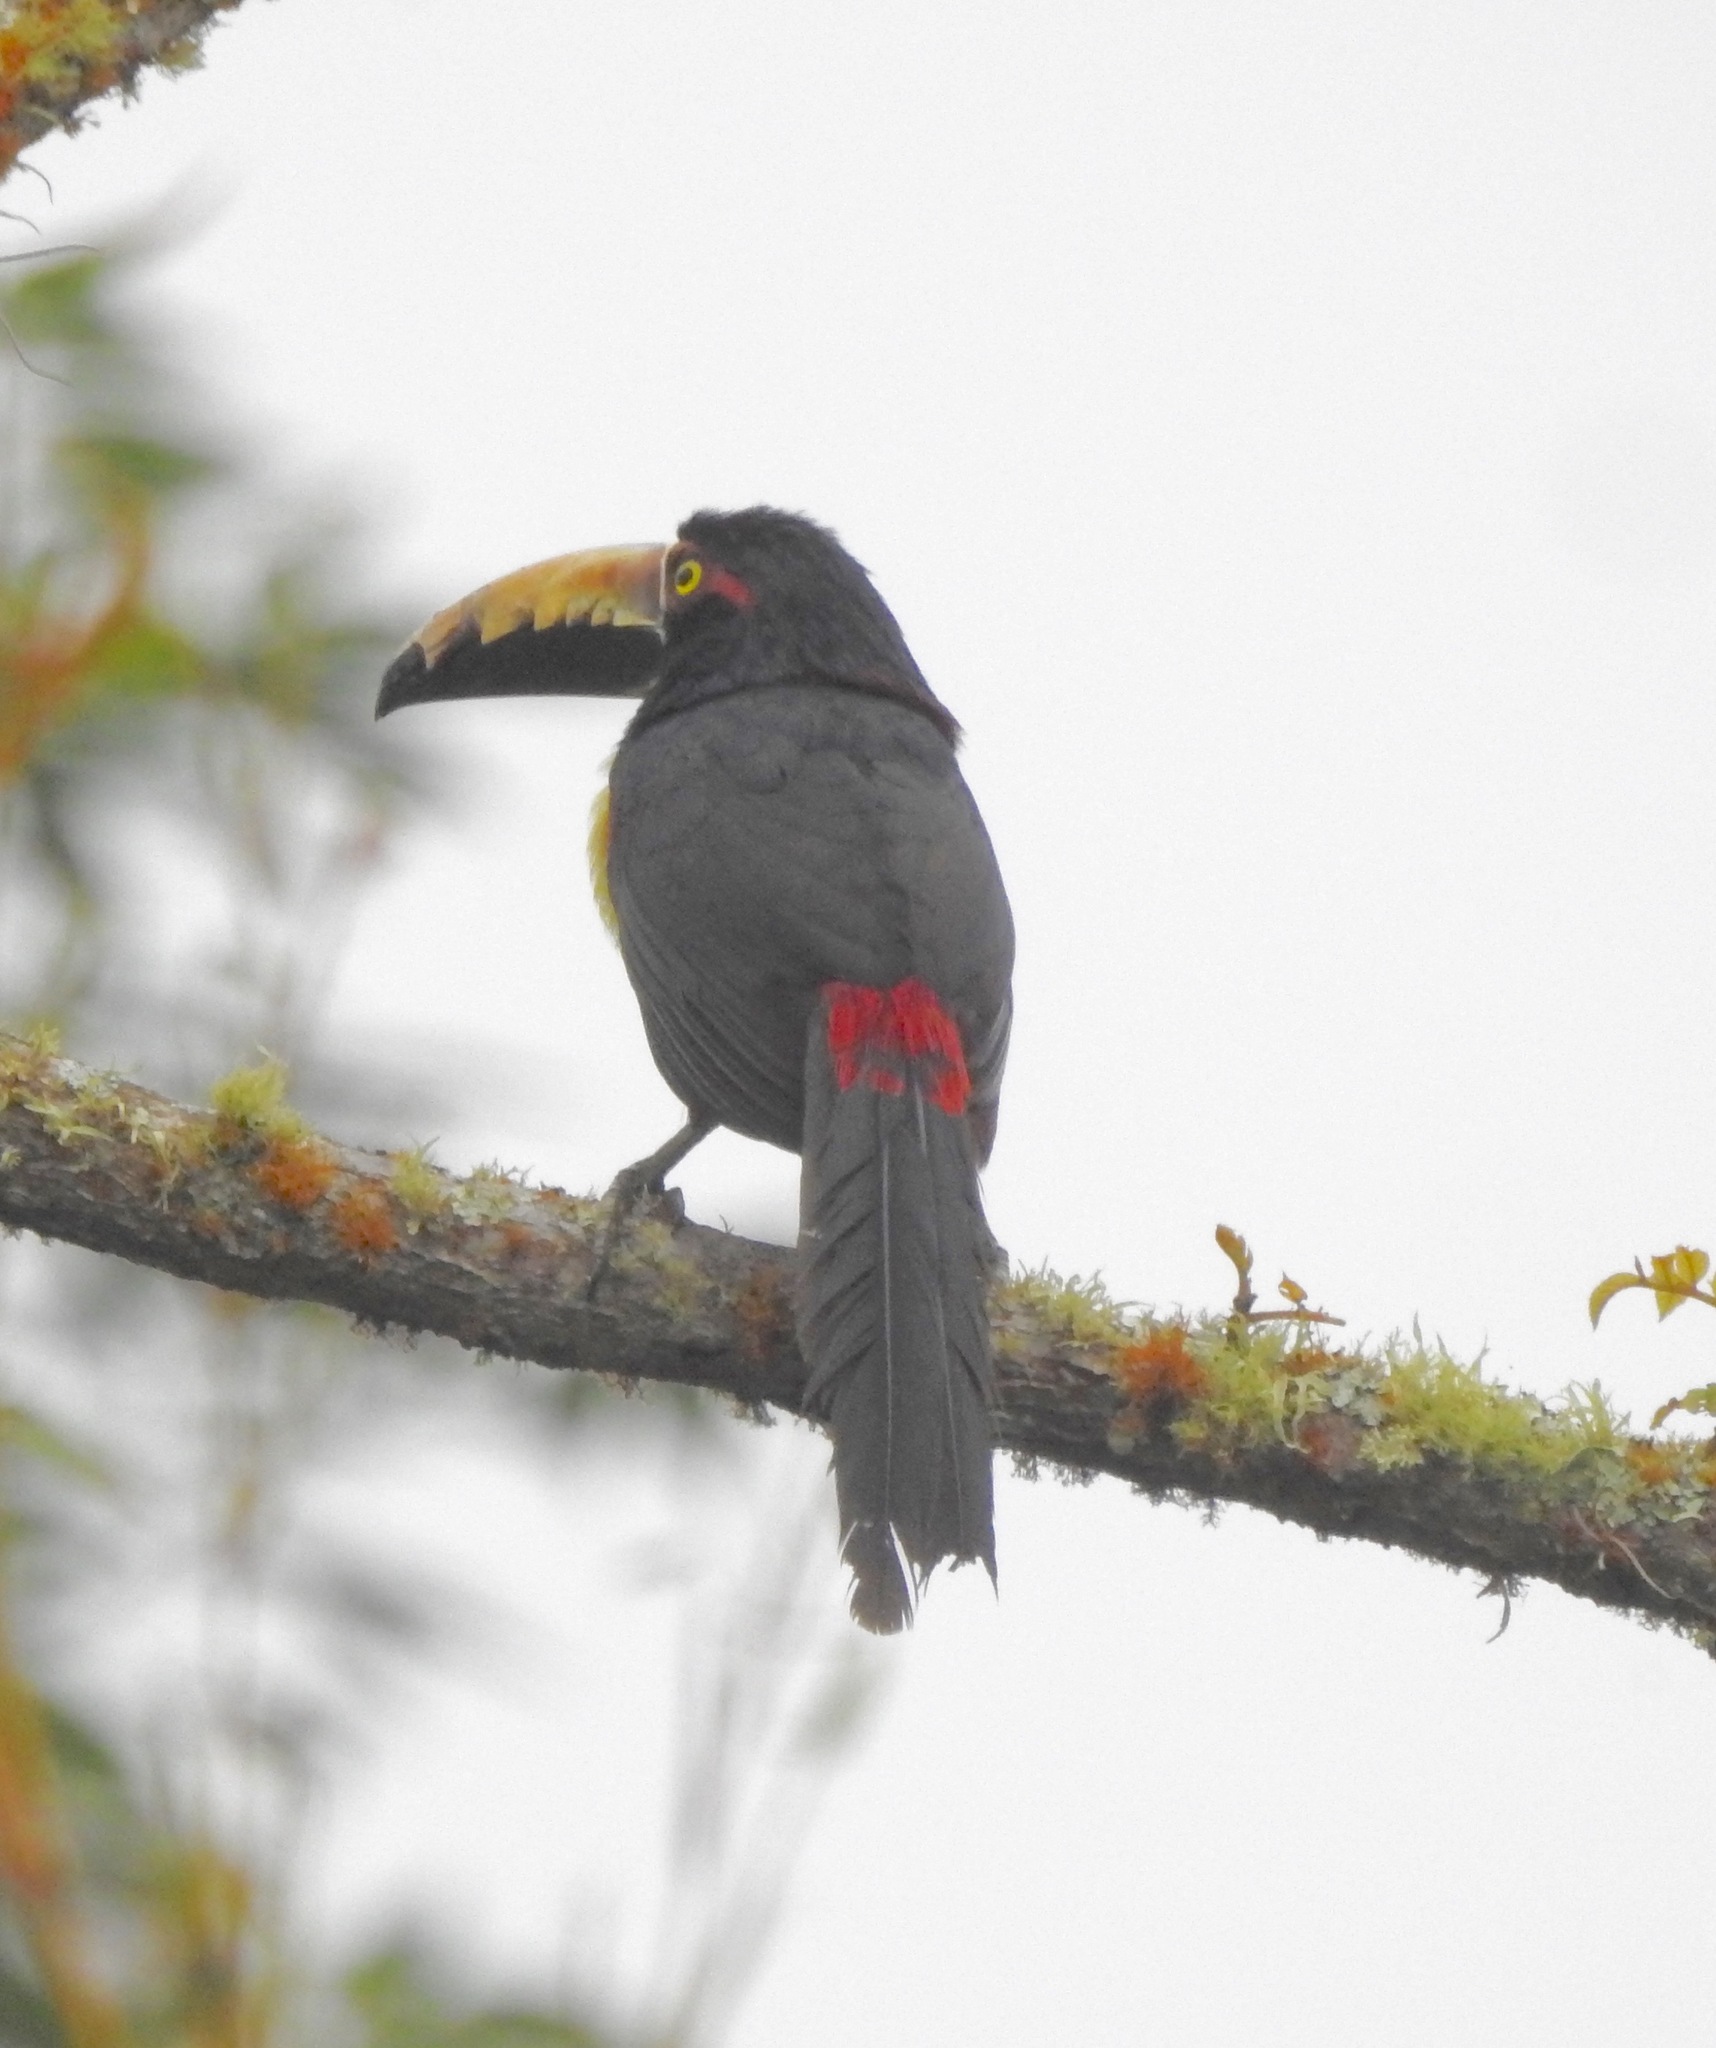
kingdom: Animalia
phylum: Chordata
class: Aves
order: Piciformes
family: Ramphastidae
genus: Pteroglossus
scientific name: Pteroglossus torquatus
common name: Collared aracari
